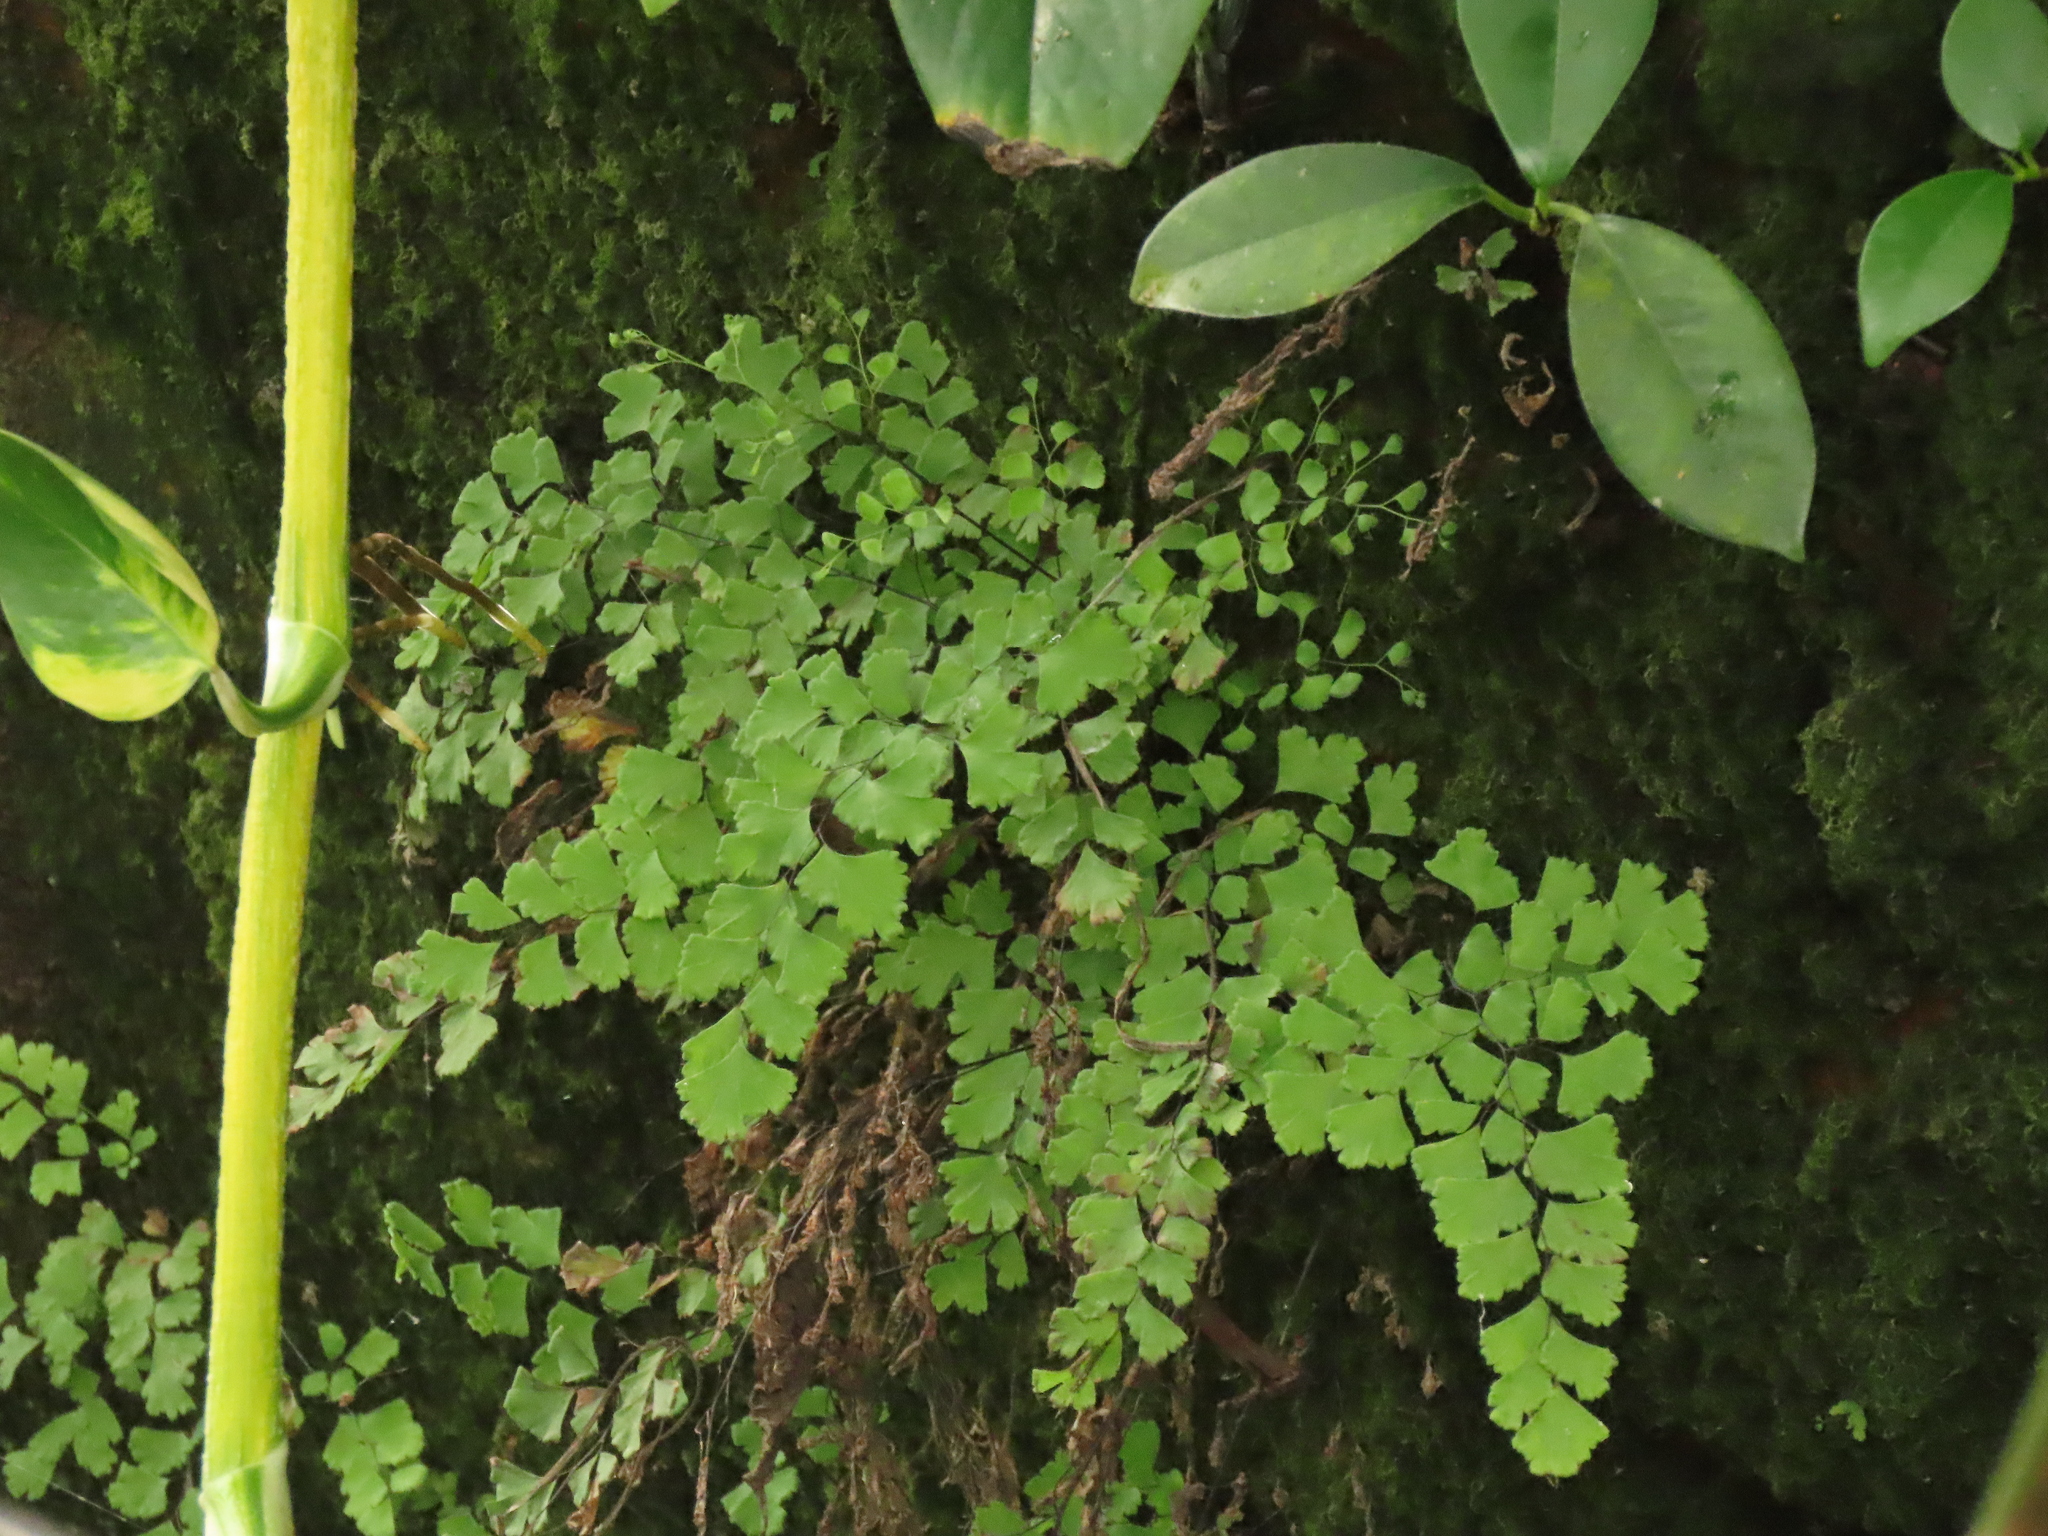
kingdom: Plantae
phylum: Tracheophyta
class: Polypodiopsida
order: Polypodiales
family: Pteridaceae
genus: Adiantum
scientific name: Adiantum capillus-veneris
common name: Maidenhair fern
